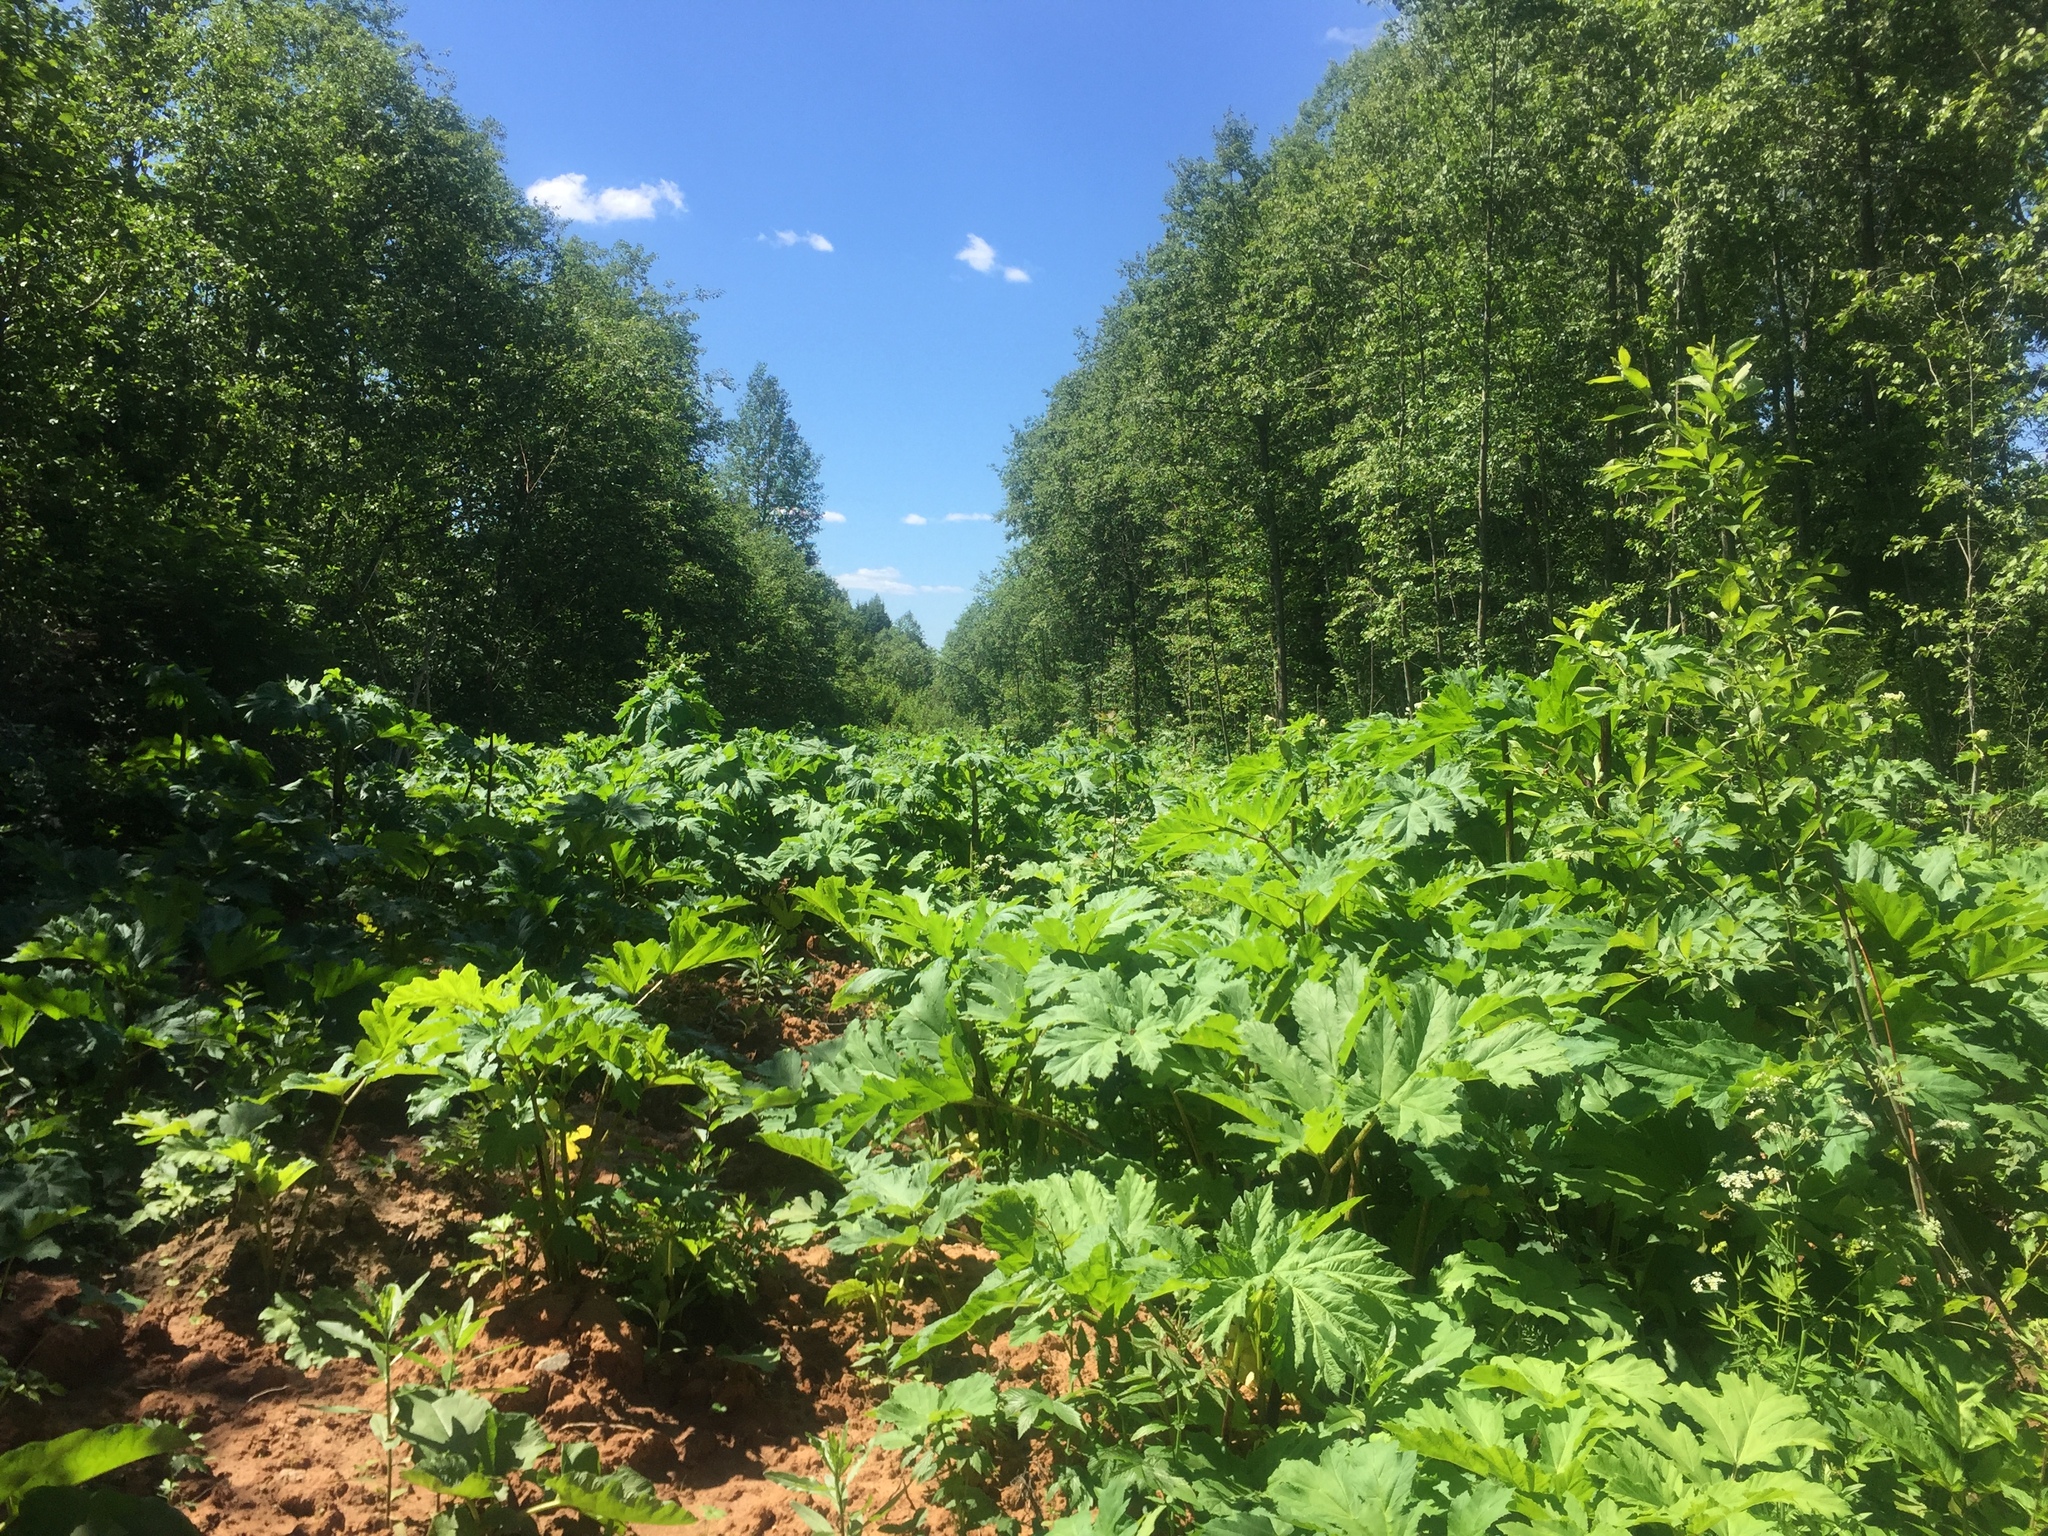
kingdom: Plantae
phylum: Tracheophyta
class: Magnoliopsida
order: Apiales
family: Apiaceae
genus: Heracleum
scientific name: Heracleum sosnowskyi
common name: Sosnowsky's hogweed
